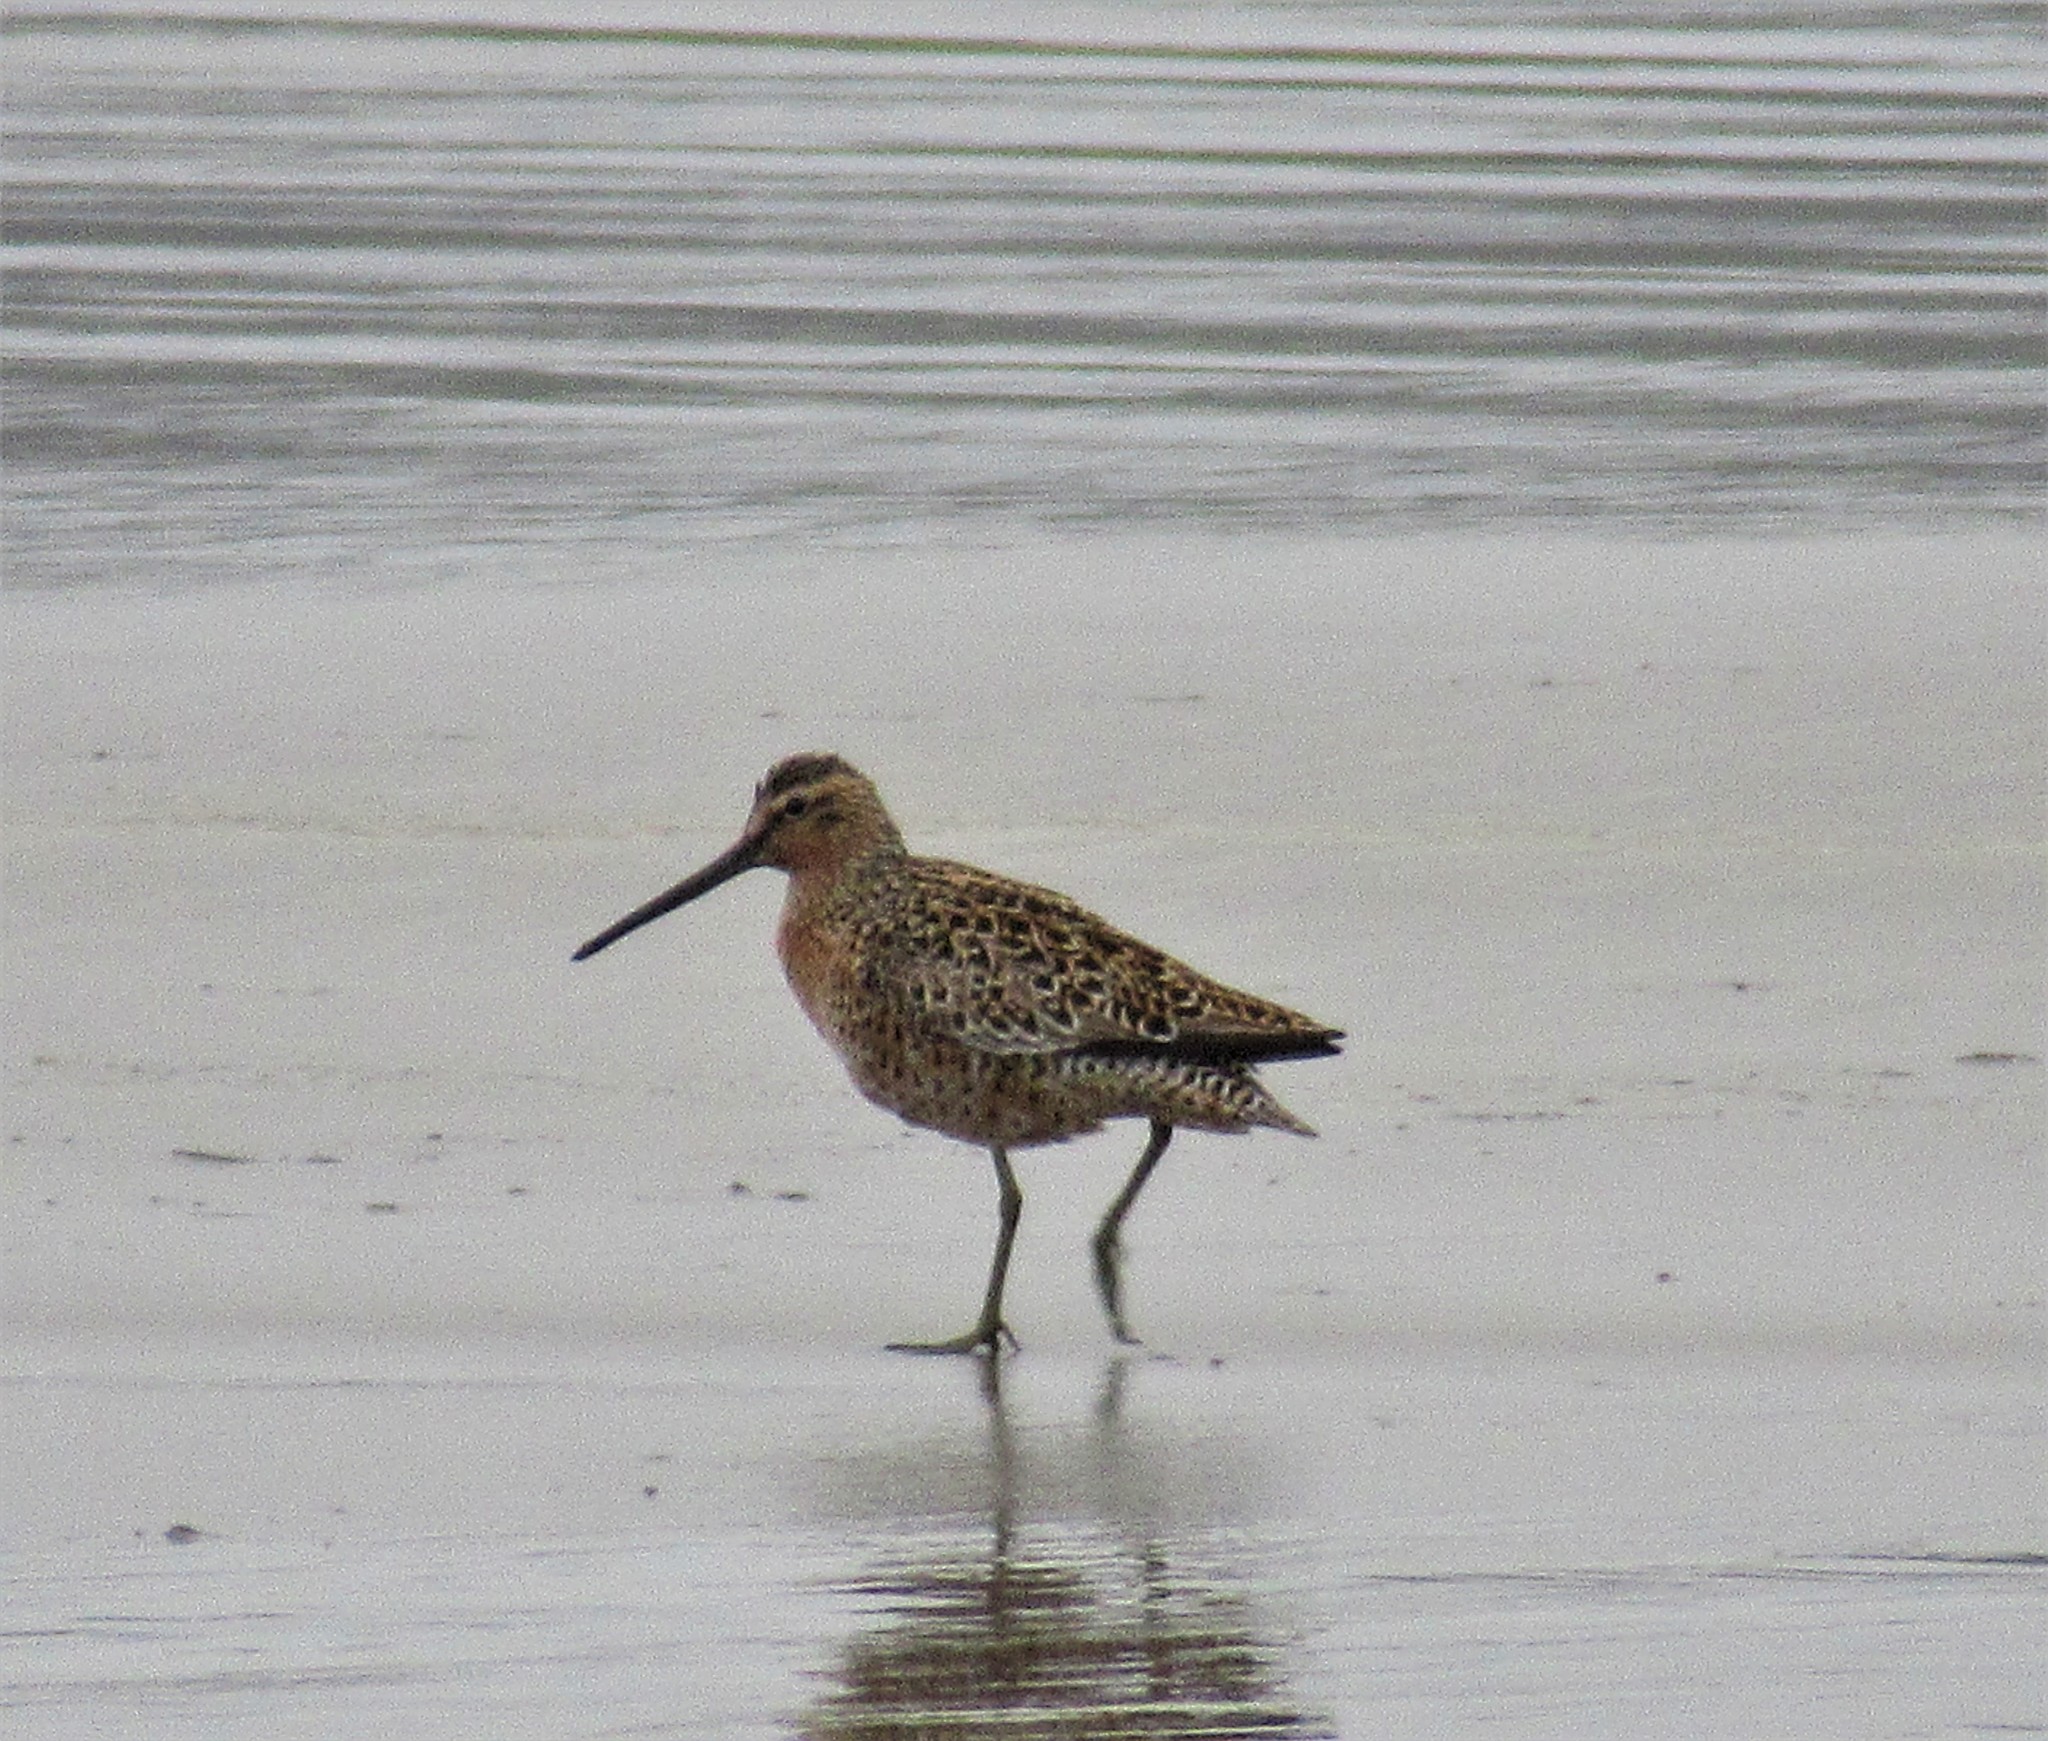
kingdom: Animalia
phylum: Chordata
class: Aves
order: Charadriiformes
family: Scolopacidae
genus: Limnodromus
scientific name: Limnodromus griseus
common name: Short-billed dowitcher
